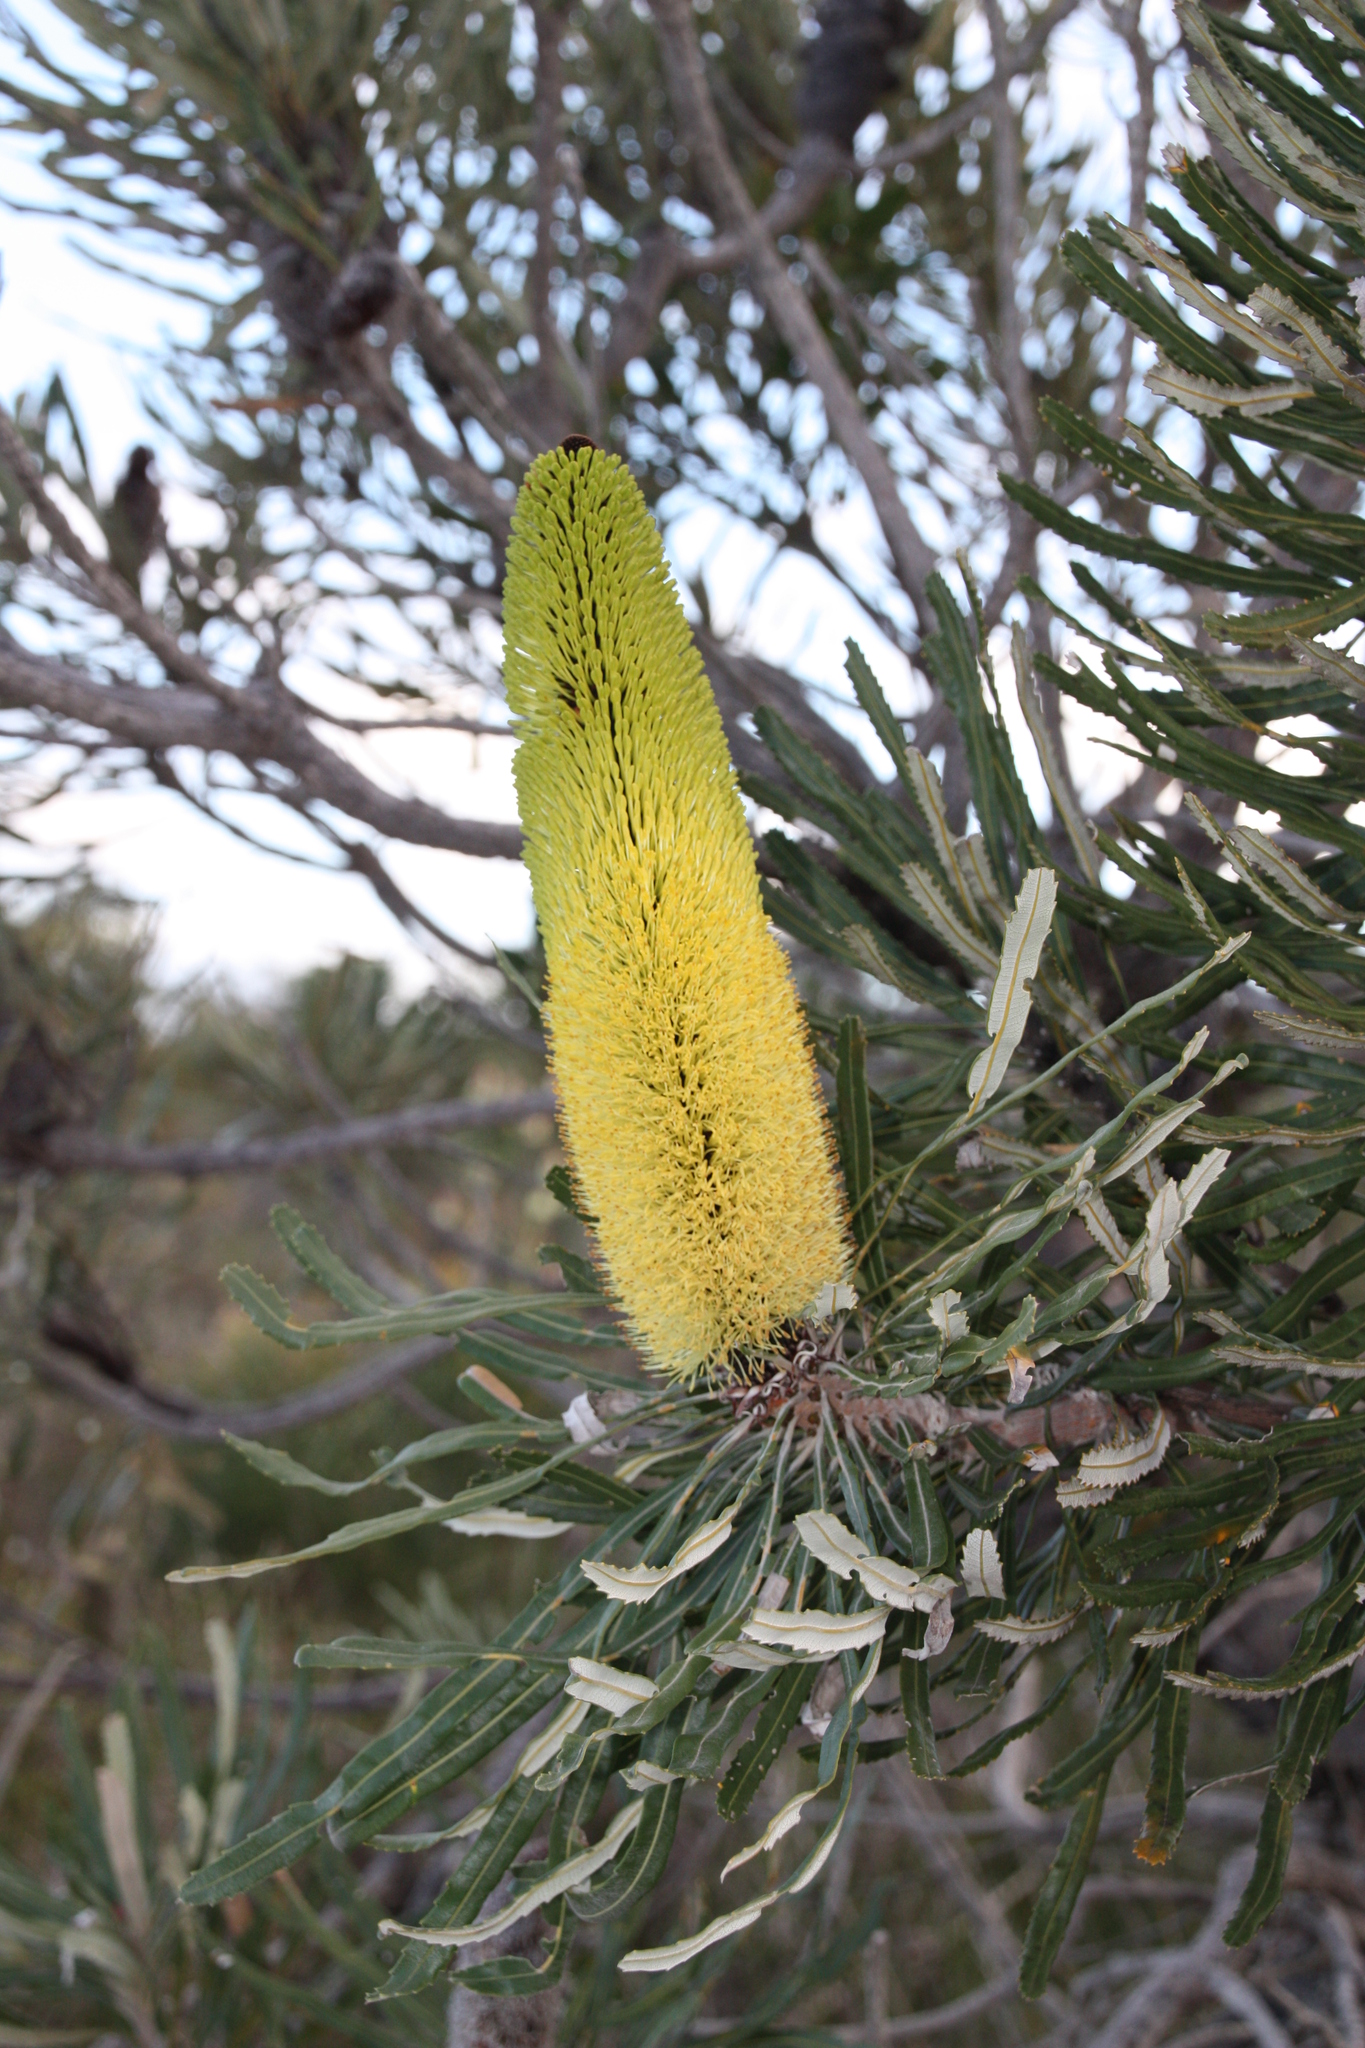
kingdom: Plantae
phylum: Tracheophyta
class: Magnoliopsida
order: Proteales
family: Proteaceae
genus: Banksia
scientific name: Banksia attenuata
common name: Coast banksia
